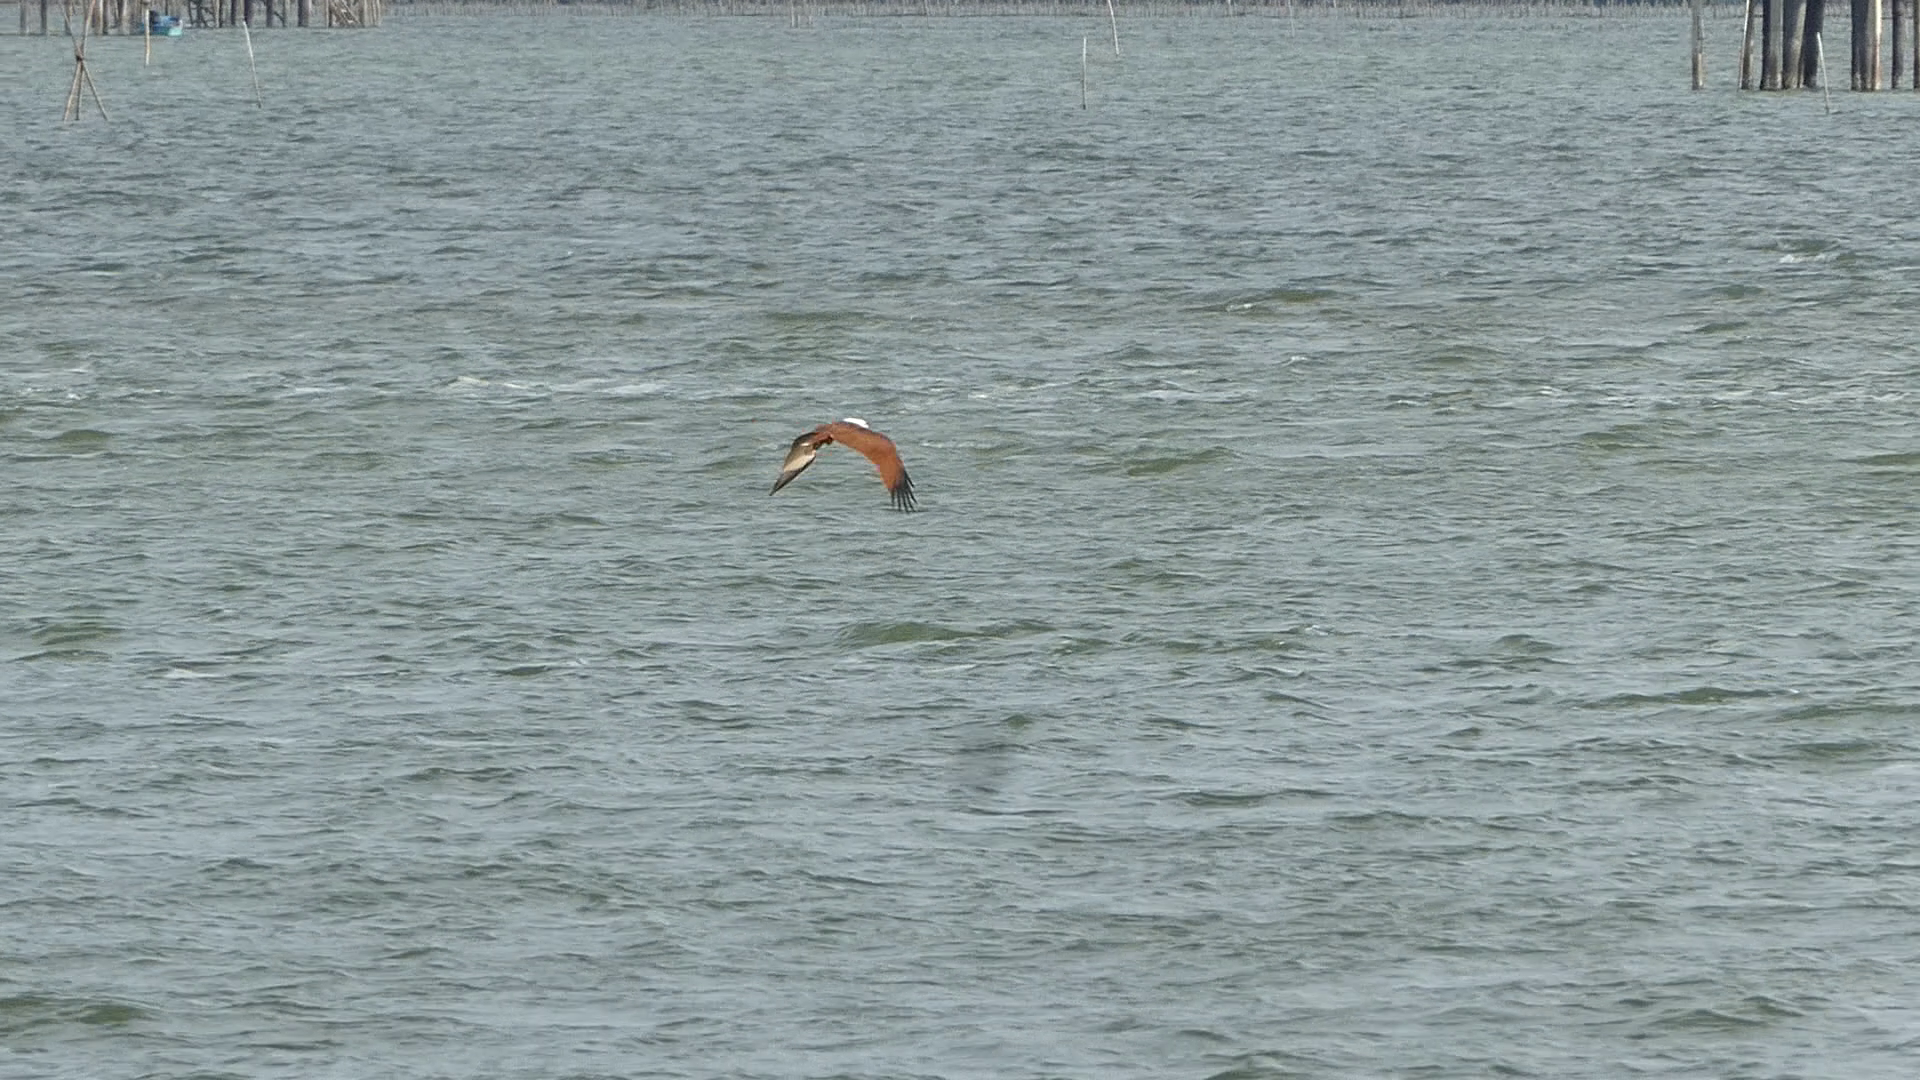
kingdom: Animalia
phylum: Chordata
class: Aves
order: Accipitriformes
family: Accipitridae
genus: Haliastur
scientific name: Haliastur indus
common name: Brahminy kite
